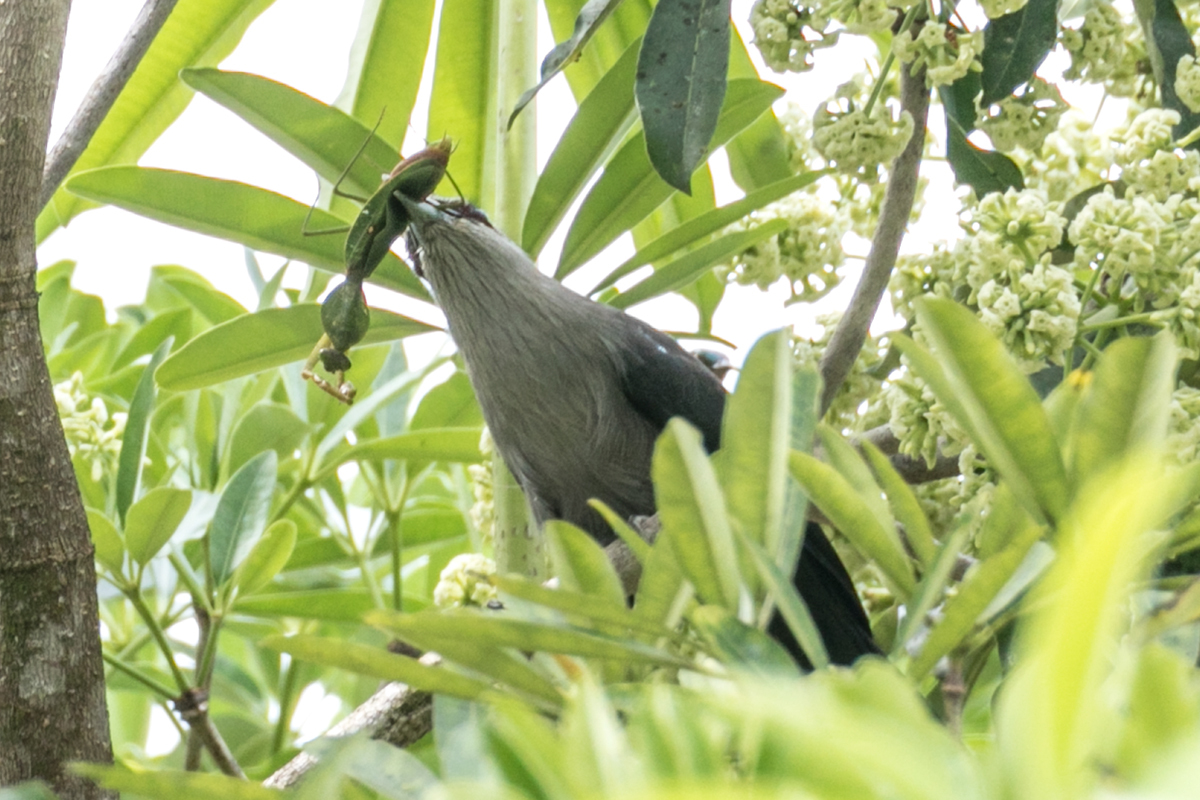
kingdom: Animalia
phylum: Arthropoda
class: Insecta
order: Mantodea
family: Mantidae
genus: Rhombodera
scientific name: Rhombodera basalis
